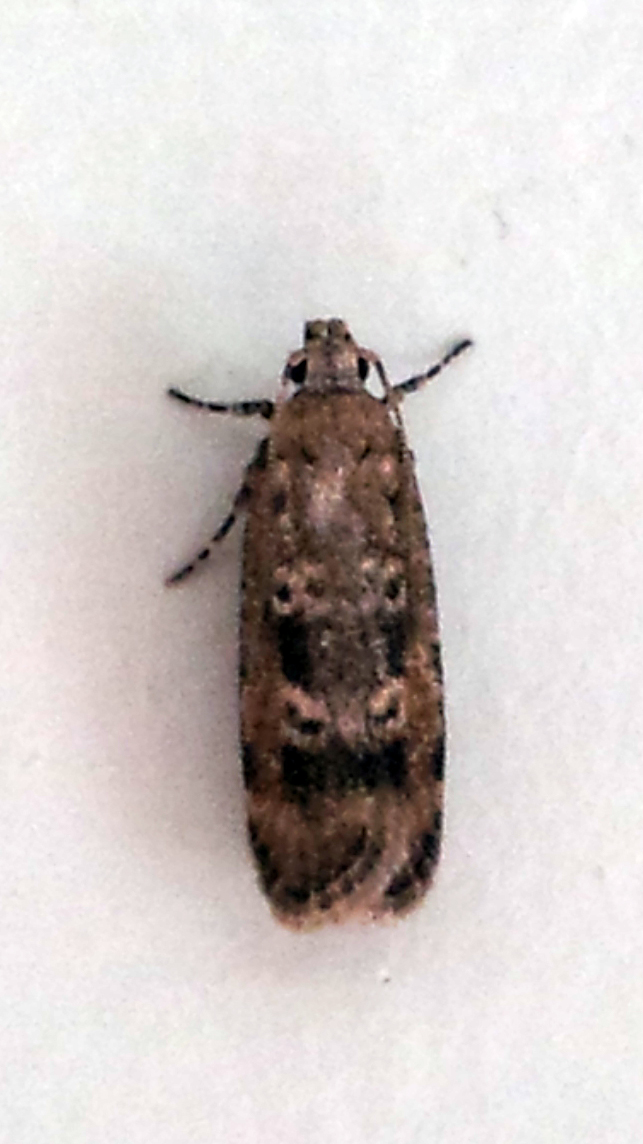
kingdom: Animalia
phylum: Arthropoda
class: Insecta
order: Lepidoptera
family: Gelechiidae
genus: Anisoplaca
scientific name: Anisoplaca cosmia
